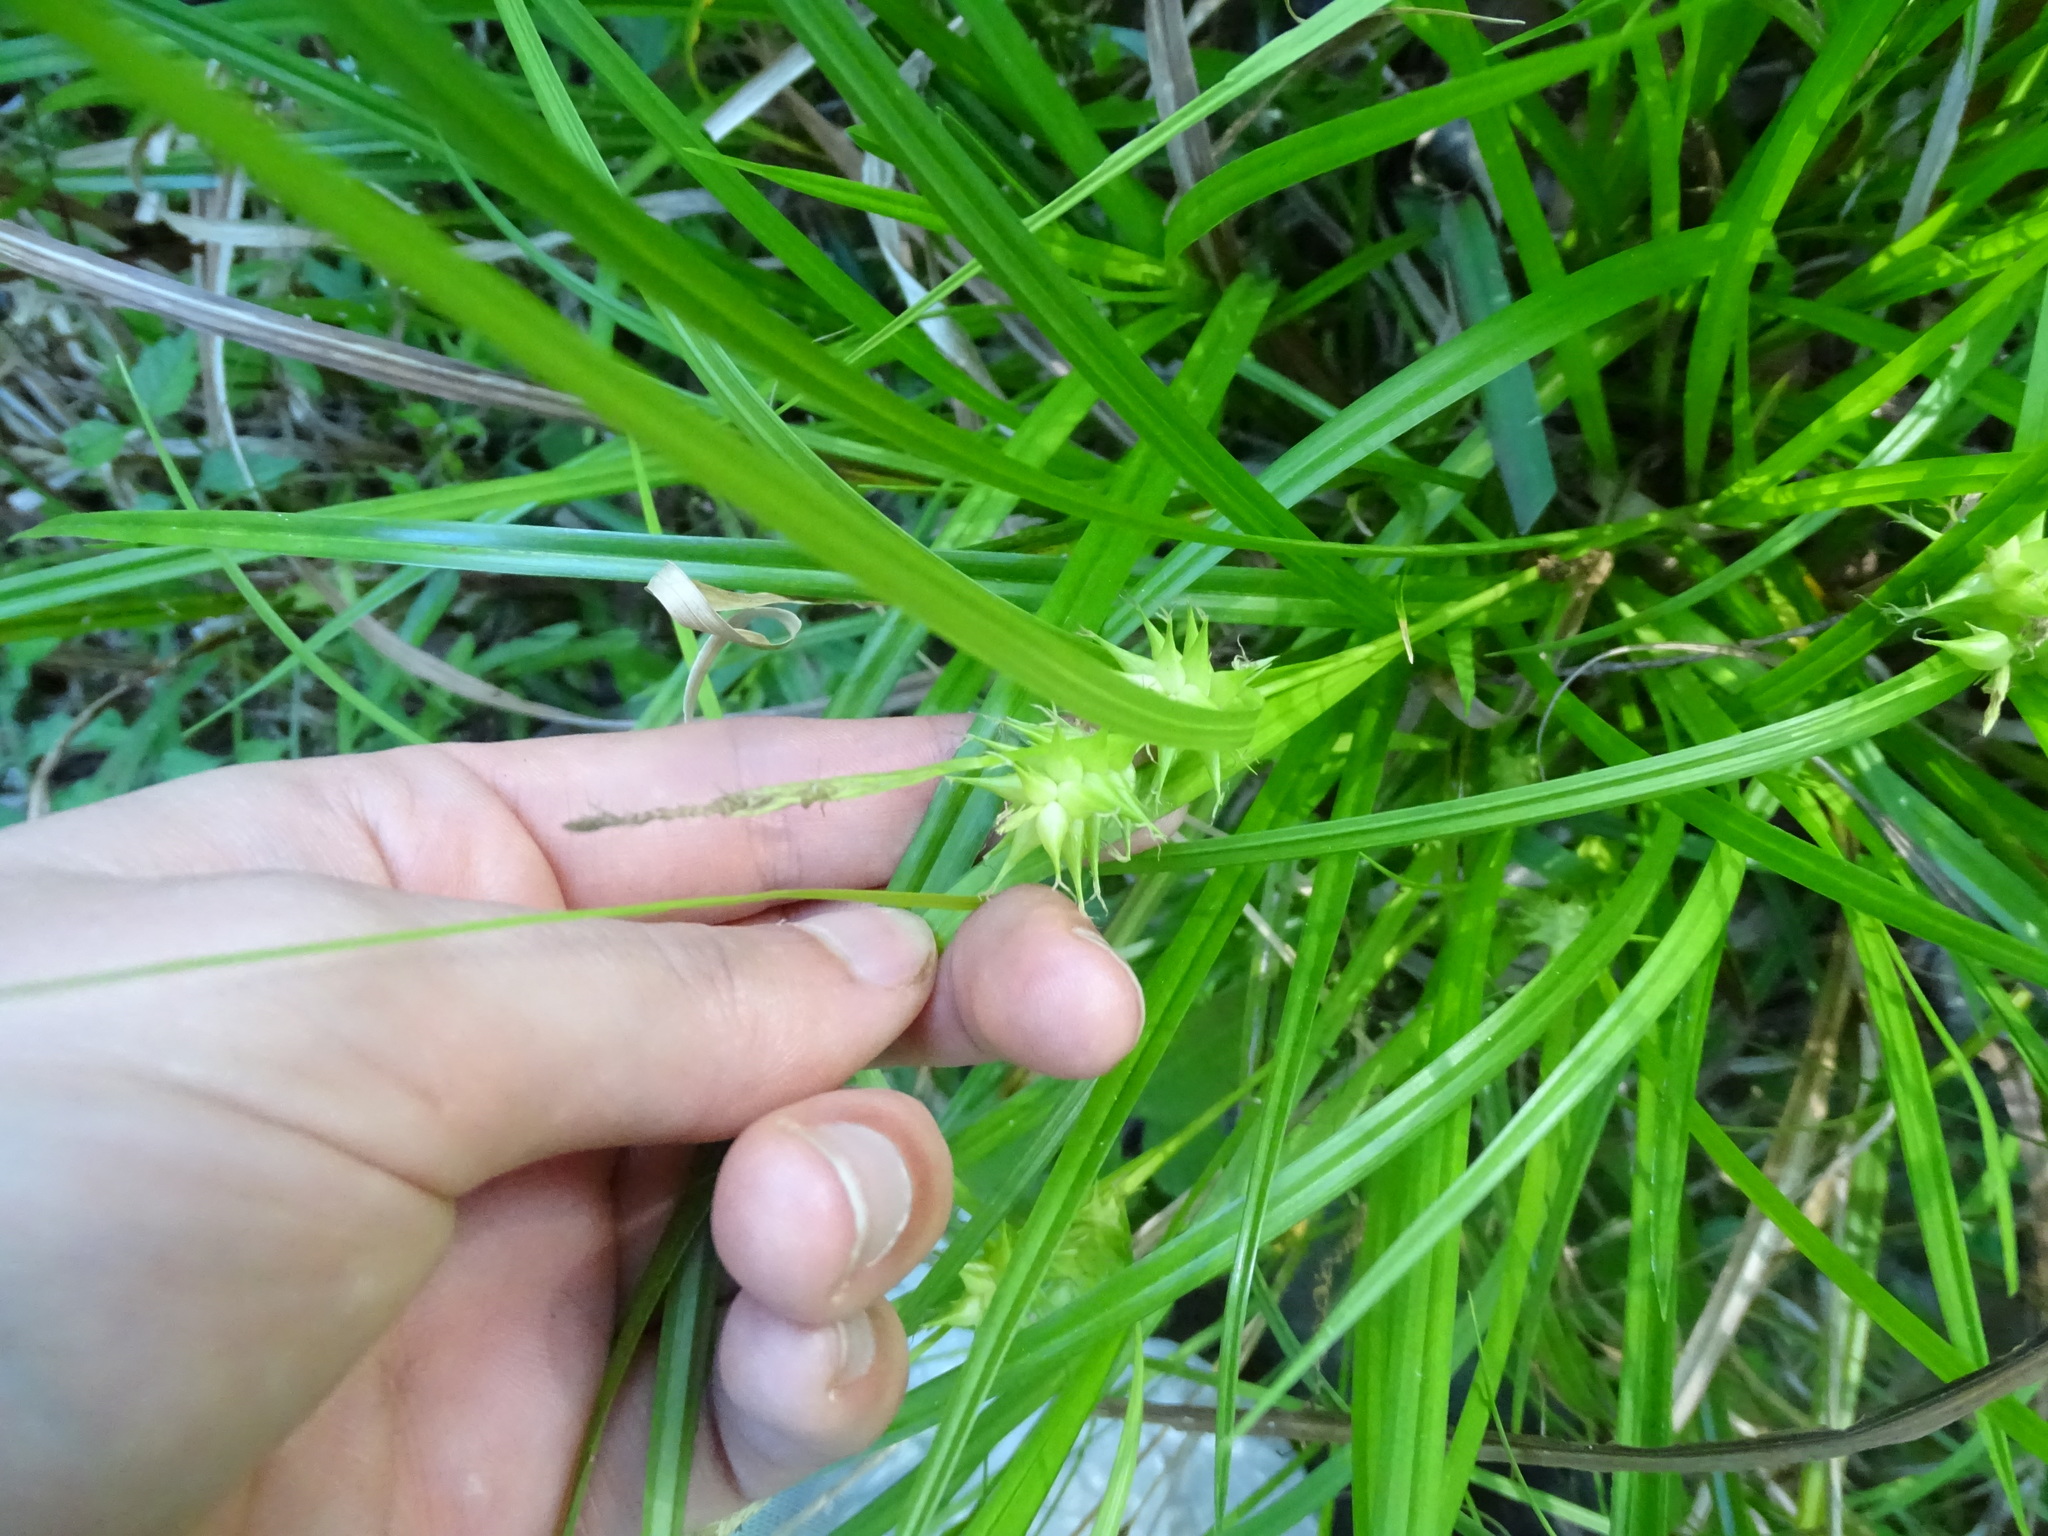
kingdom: Plantae
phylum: Tracheophyta
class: Liliopsida
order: Poales
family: Cyperaceae
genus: Carex
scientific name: Carex intumescens
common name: Greater bladder sedge
